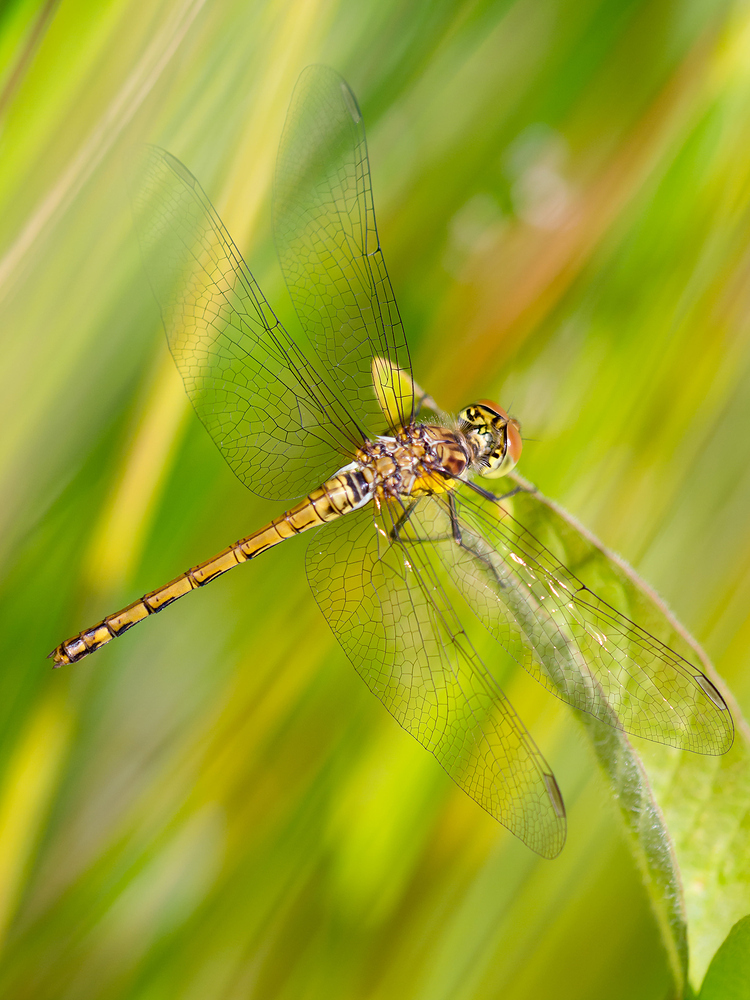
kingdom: Animalia
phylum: Arthropoda
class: Insecta
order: Odonata
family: Libellulidae
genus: Sympetrum
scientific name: Sympetrum striolatum
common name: Common darter
